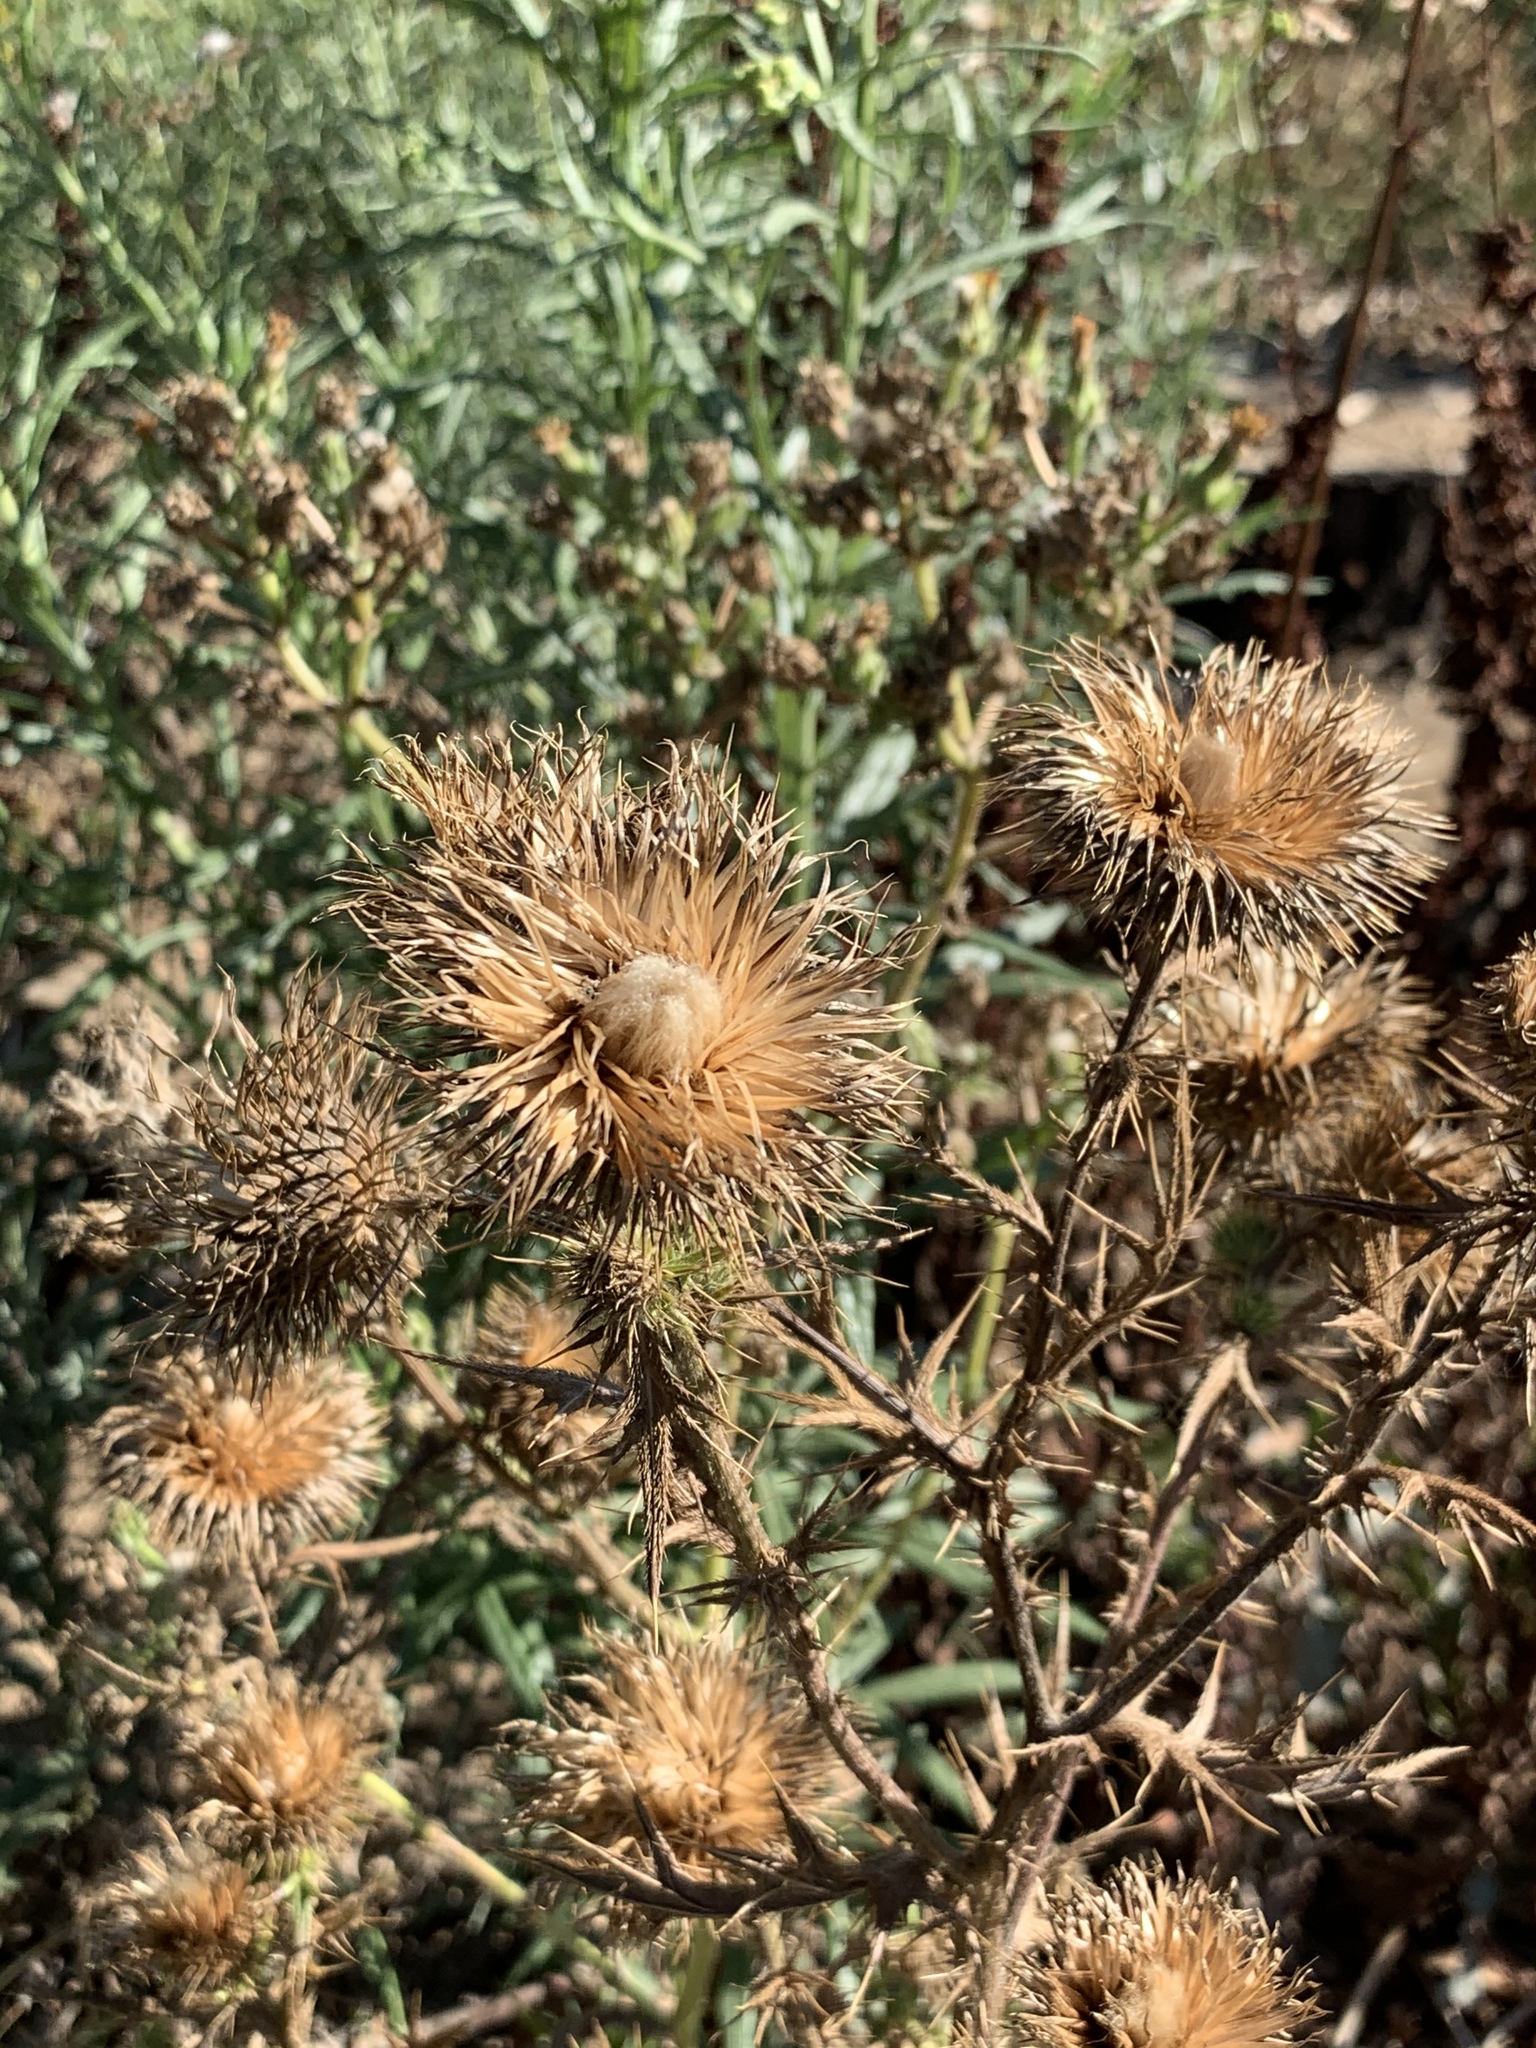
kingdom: Plantae
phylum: Tracheophyta
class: Magnoliopsida
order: Asterales
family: Asteraceae
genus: Cirsium
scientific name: Cirsium vulgare
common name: Bull thistle
